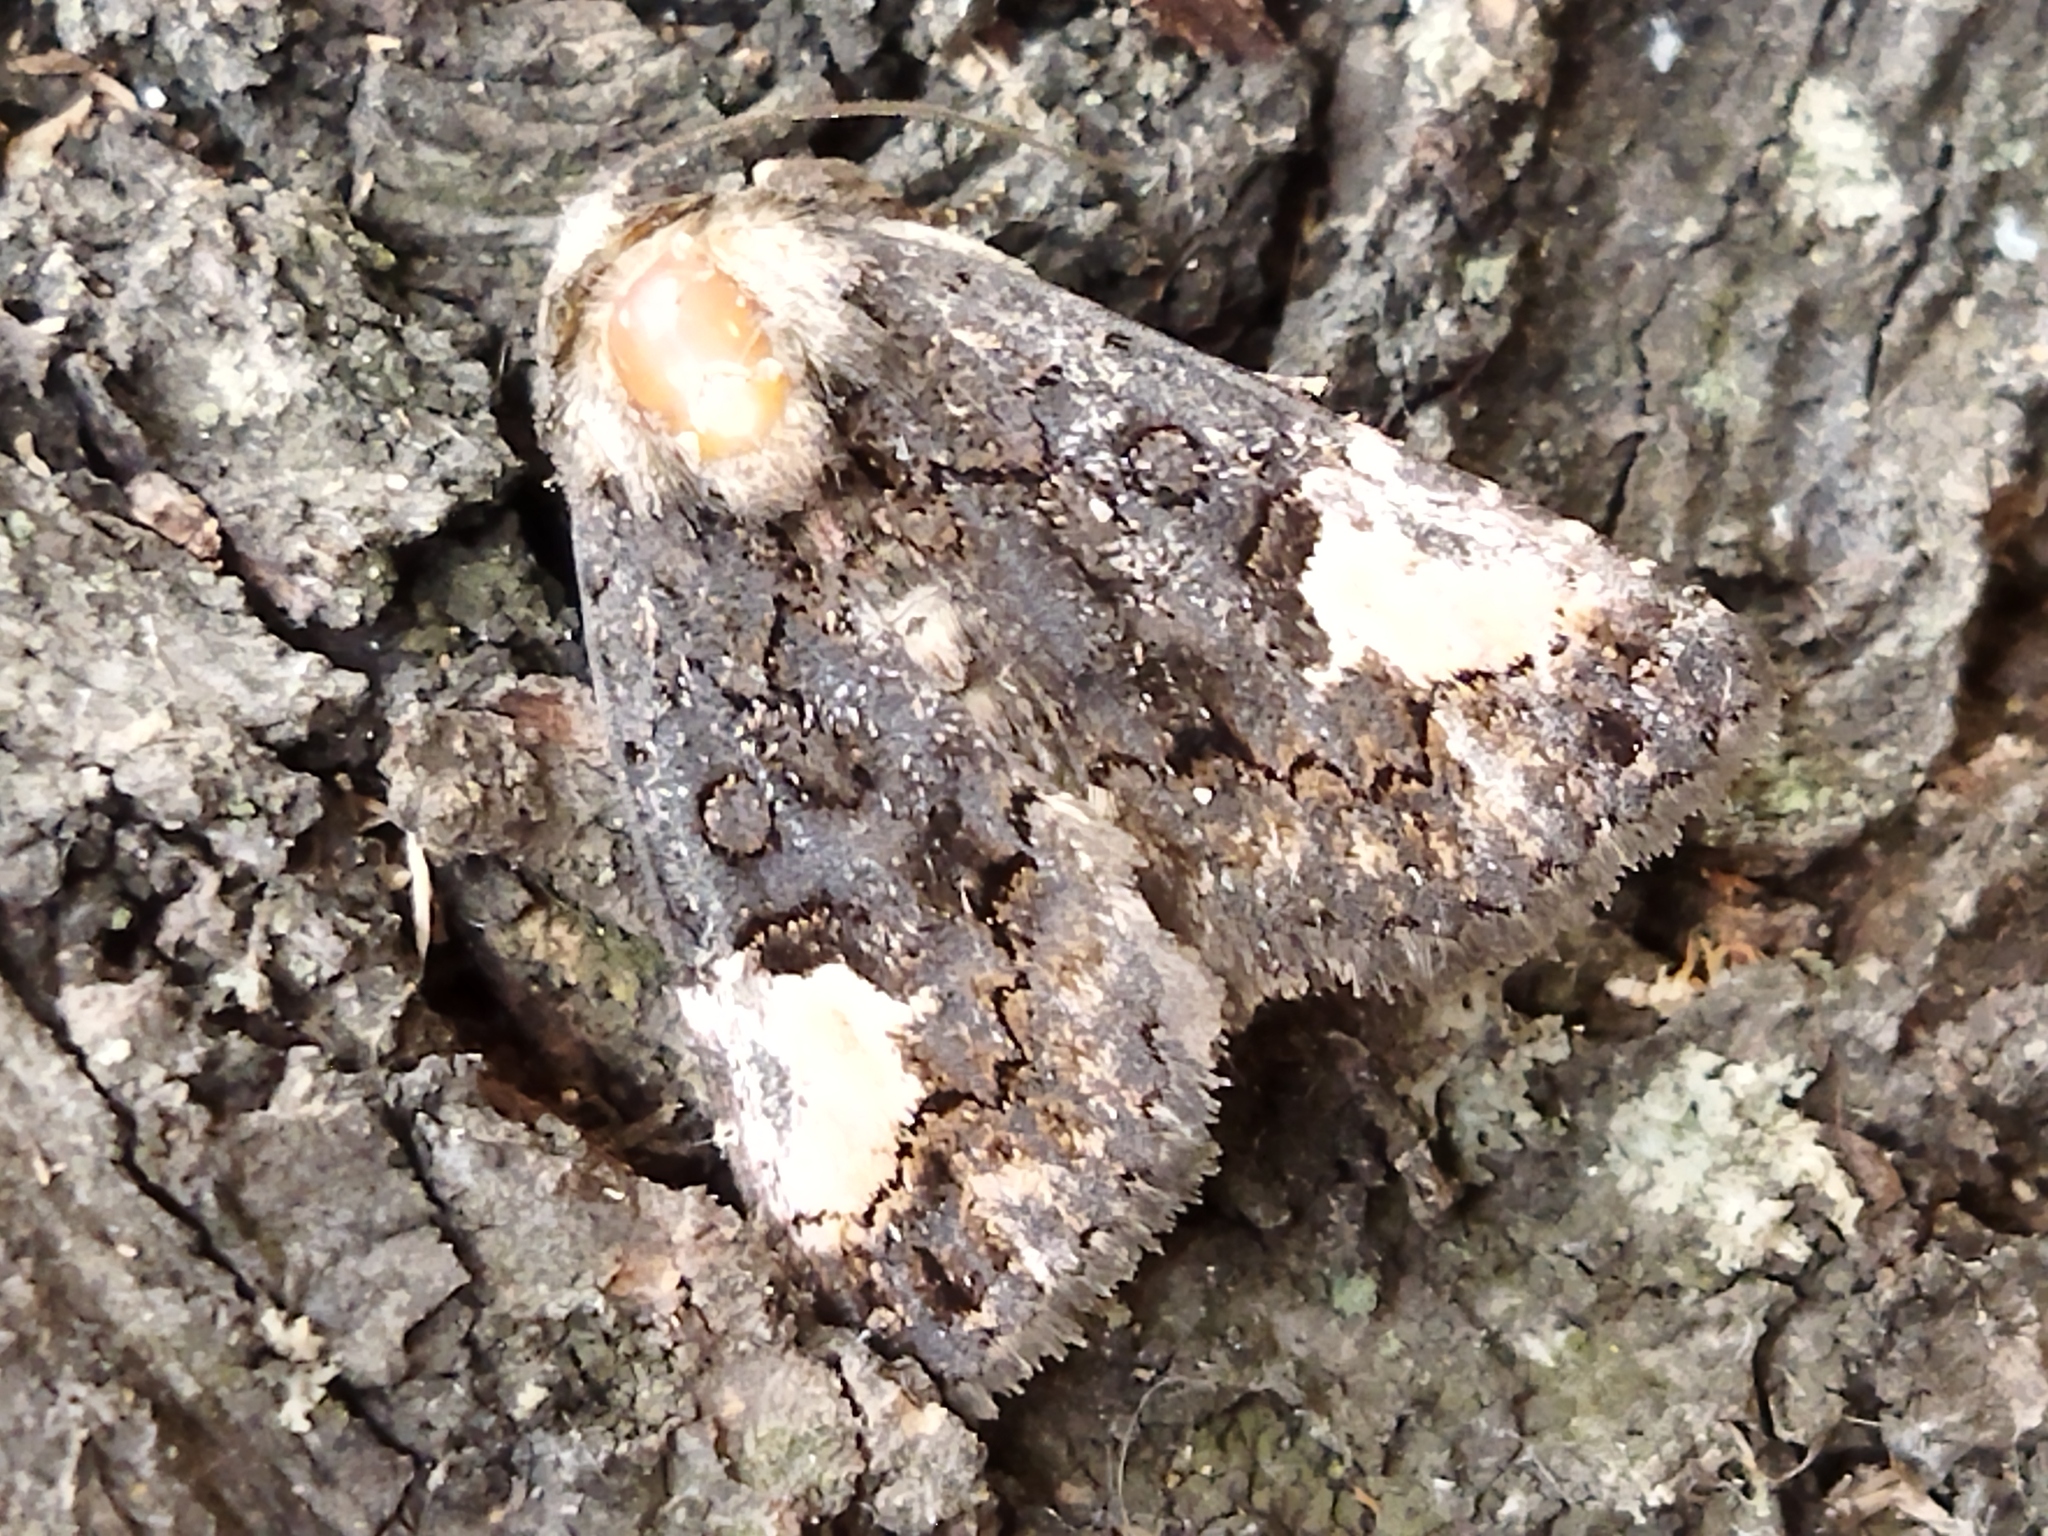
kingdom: Animalia
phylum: Arthropoda
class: Insecta
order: Lepidoptera
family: Noctuidae
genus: Aedia
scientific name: Aedia funesta
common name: The druid
